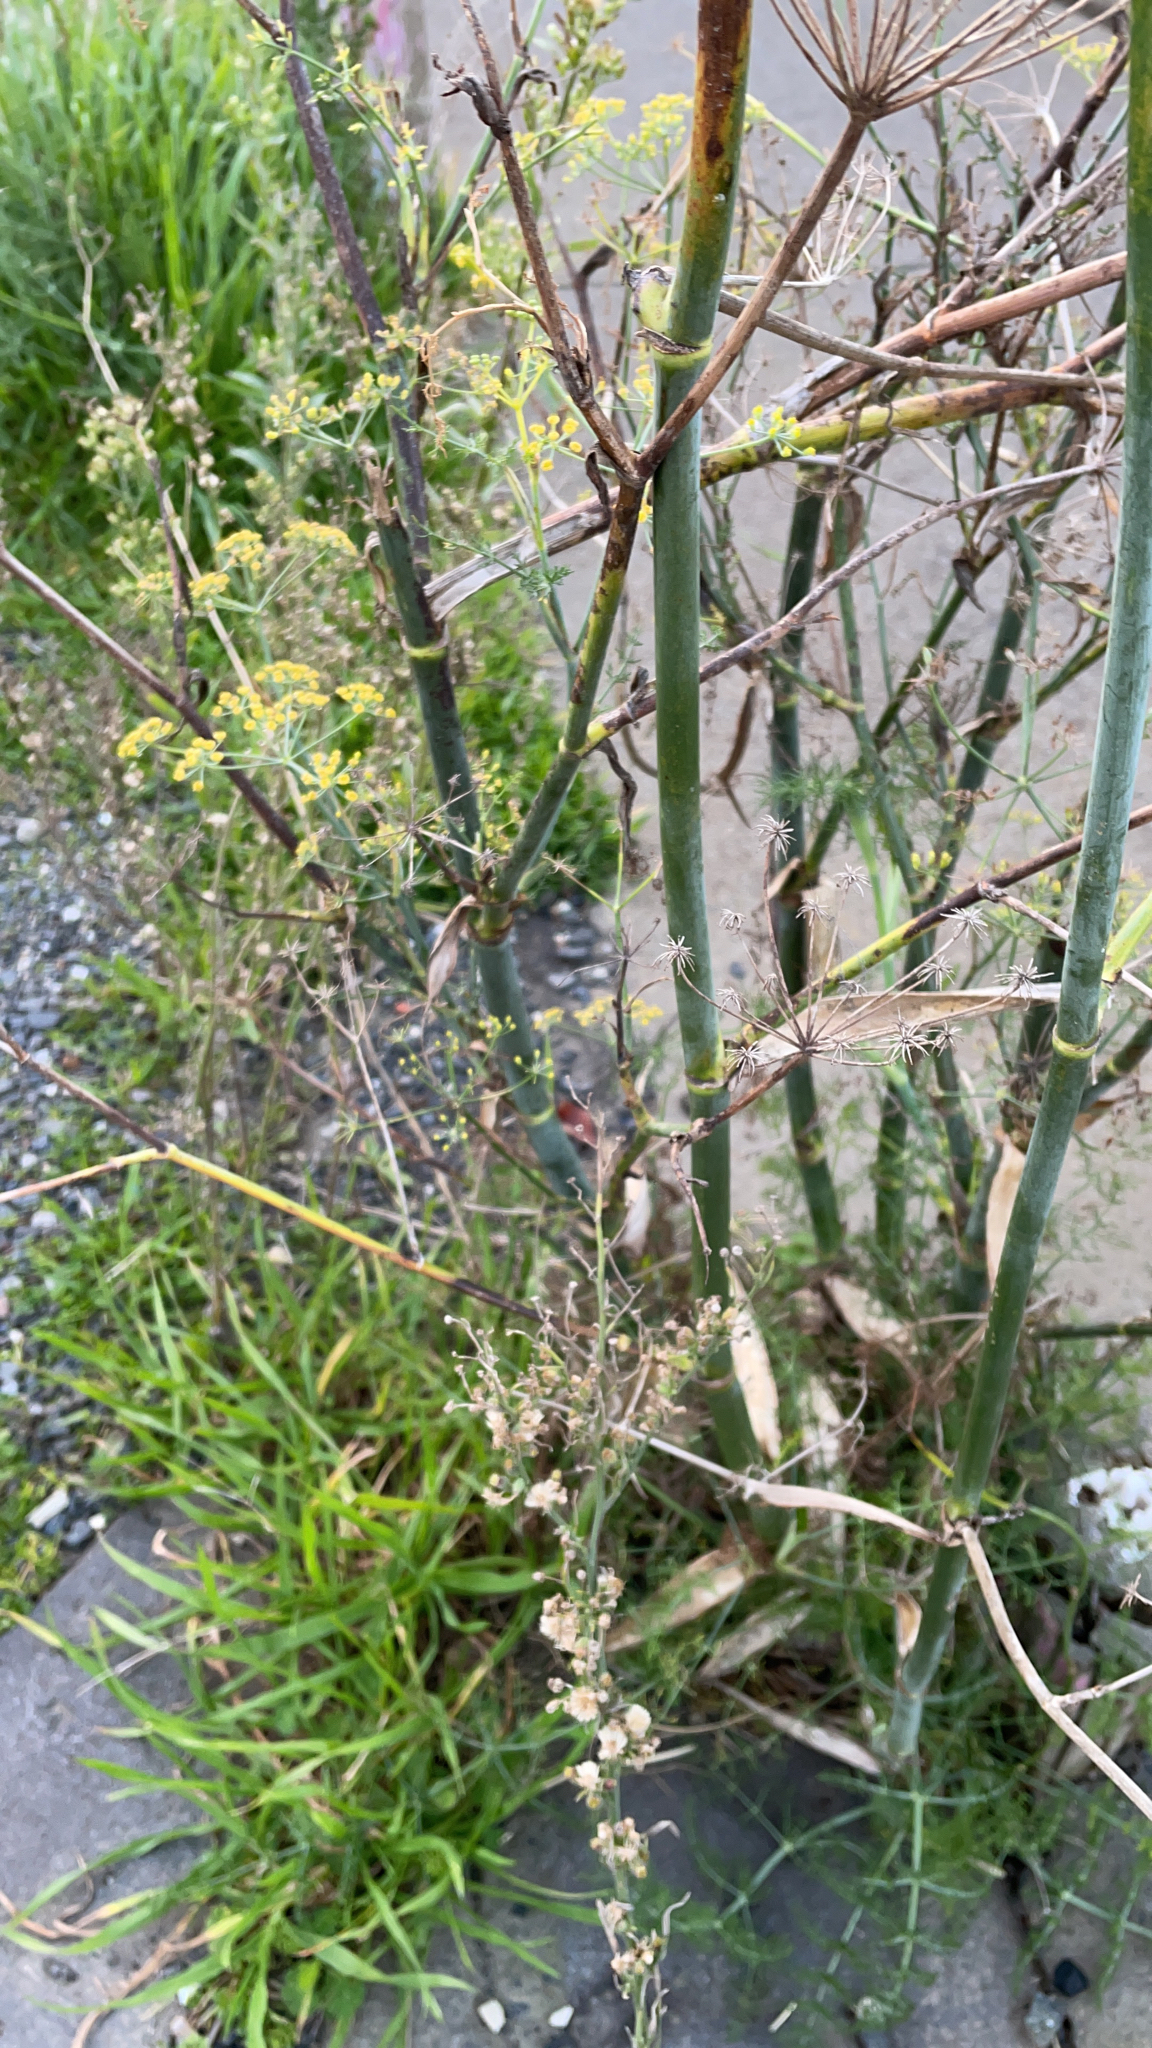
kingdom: Plantae
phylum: Tracheophyta
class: Magnoliopsida
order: Apiales
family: Apiaceae
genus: Foeniculum
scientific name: Foeniculum vulgare
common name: Fennel
